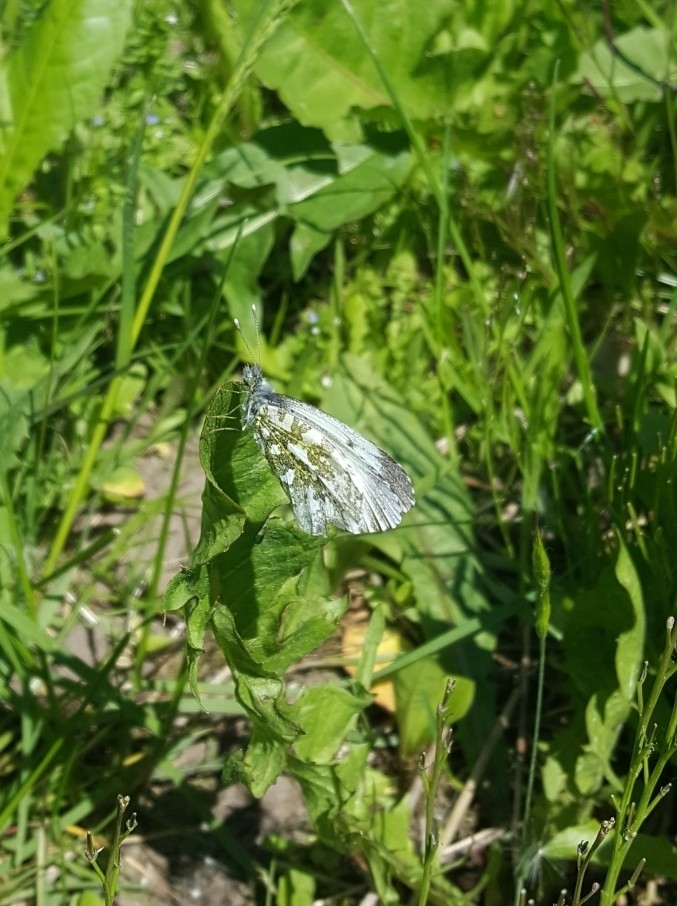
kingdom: Animalia
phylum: Arthropoda
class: Insecta
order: Lepidoptera
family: Pieridae
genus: Anthocharis
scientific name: Anthocharis cardamines
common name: Orange-tip
